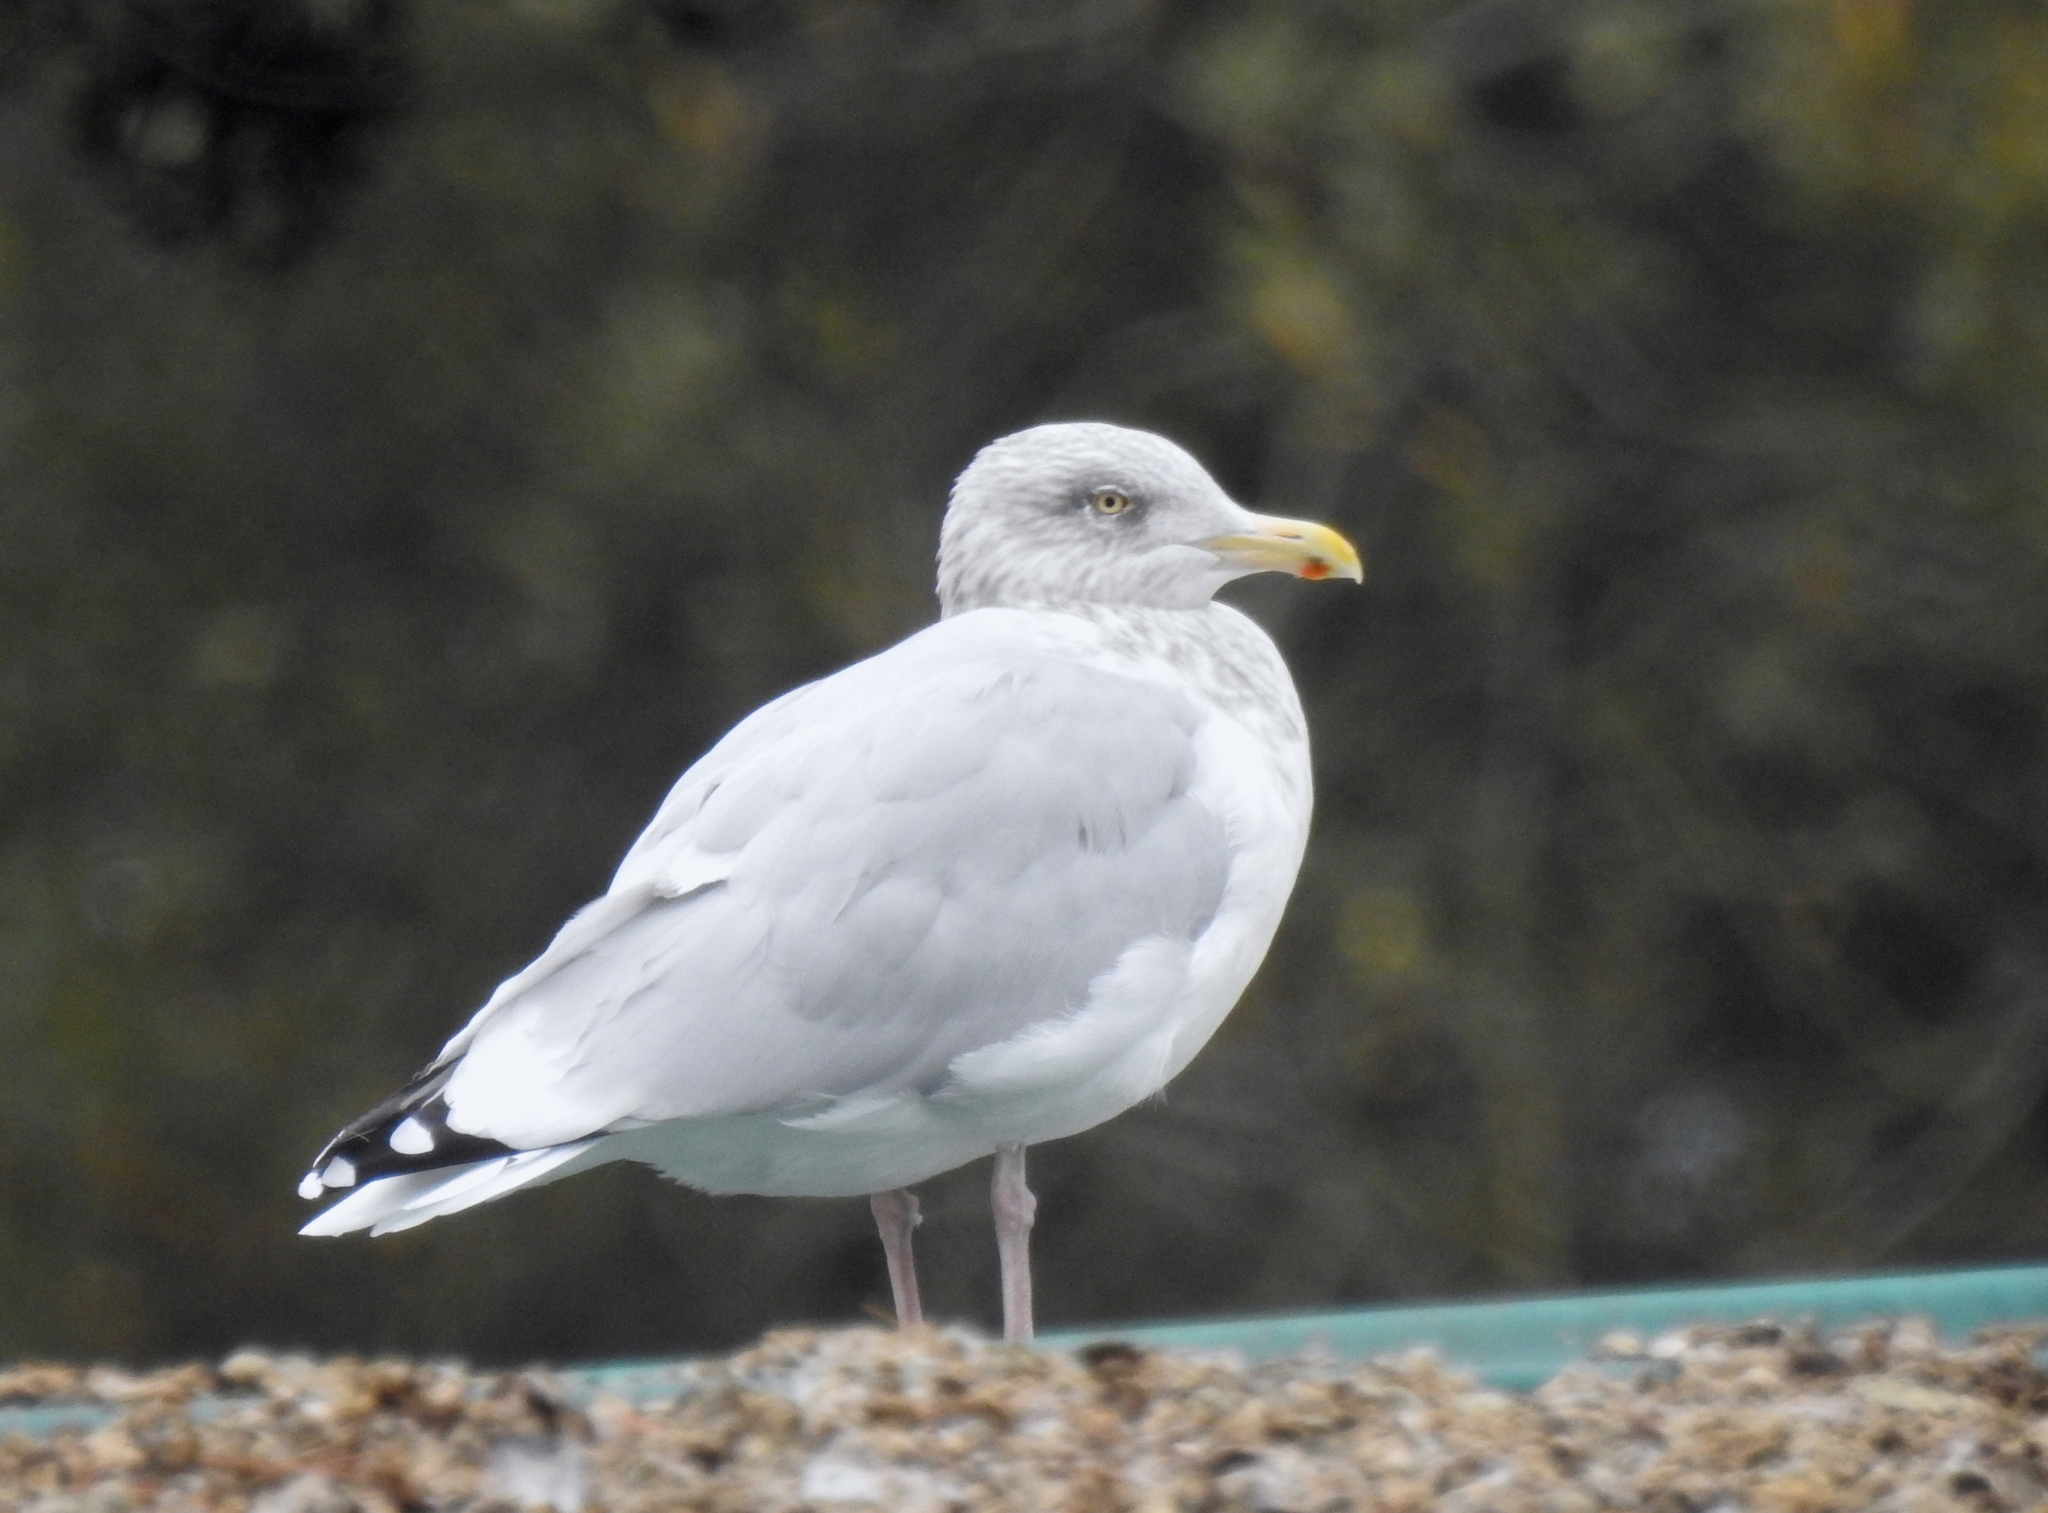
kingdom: Animalia
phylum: Chordata
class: Aves
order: Charadriiformes
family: Laridae
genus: Larus
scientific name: Larus argentatus
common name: Herring gull
